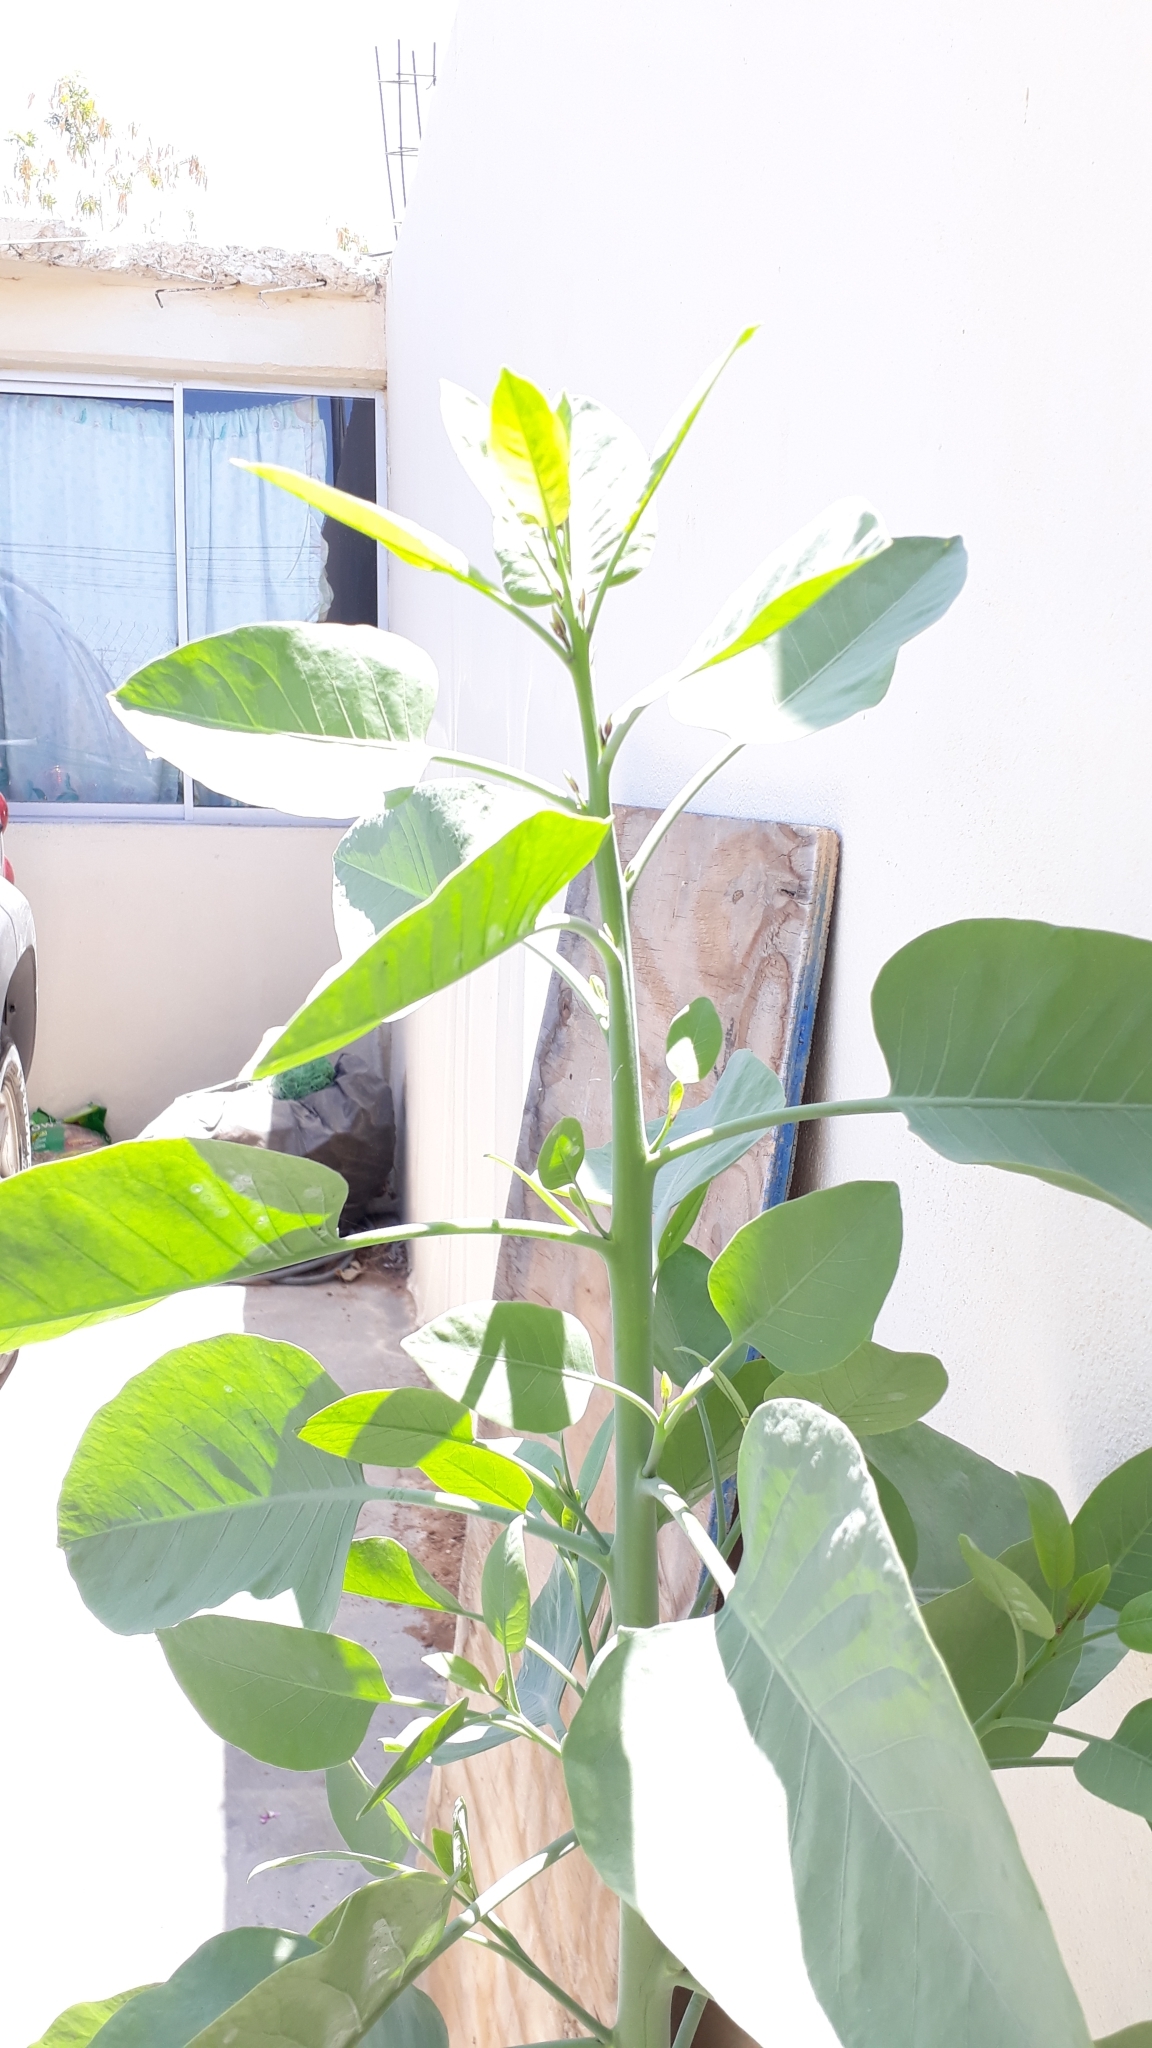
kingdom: Plantae
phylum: Tracheophyta
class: Magnoliopsida
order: Solanales
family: Solanaceae
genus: Nicotiana
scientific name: Nicotiana glauca
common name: Tree tobacco
